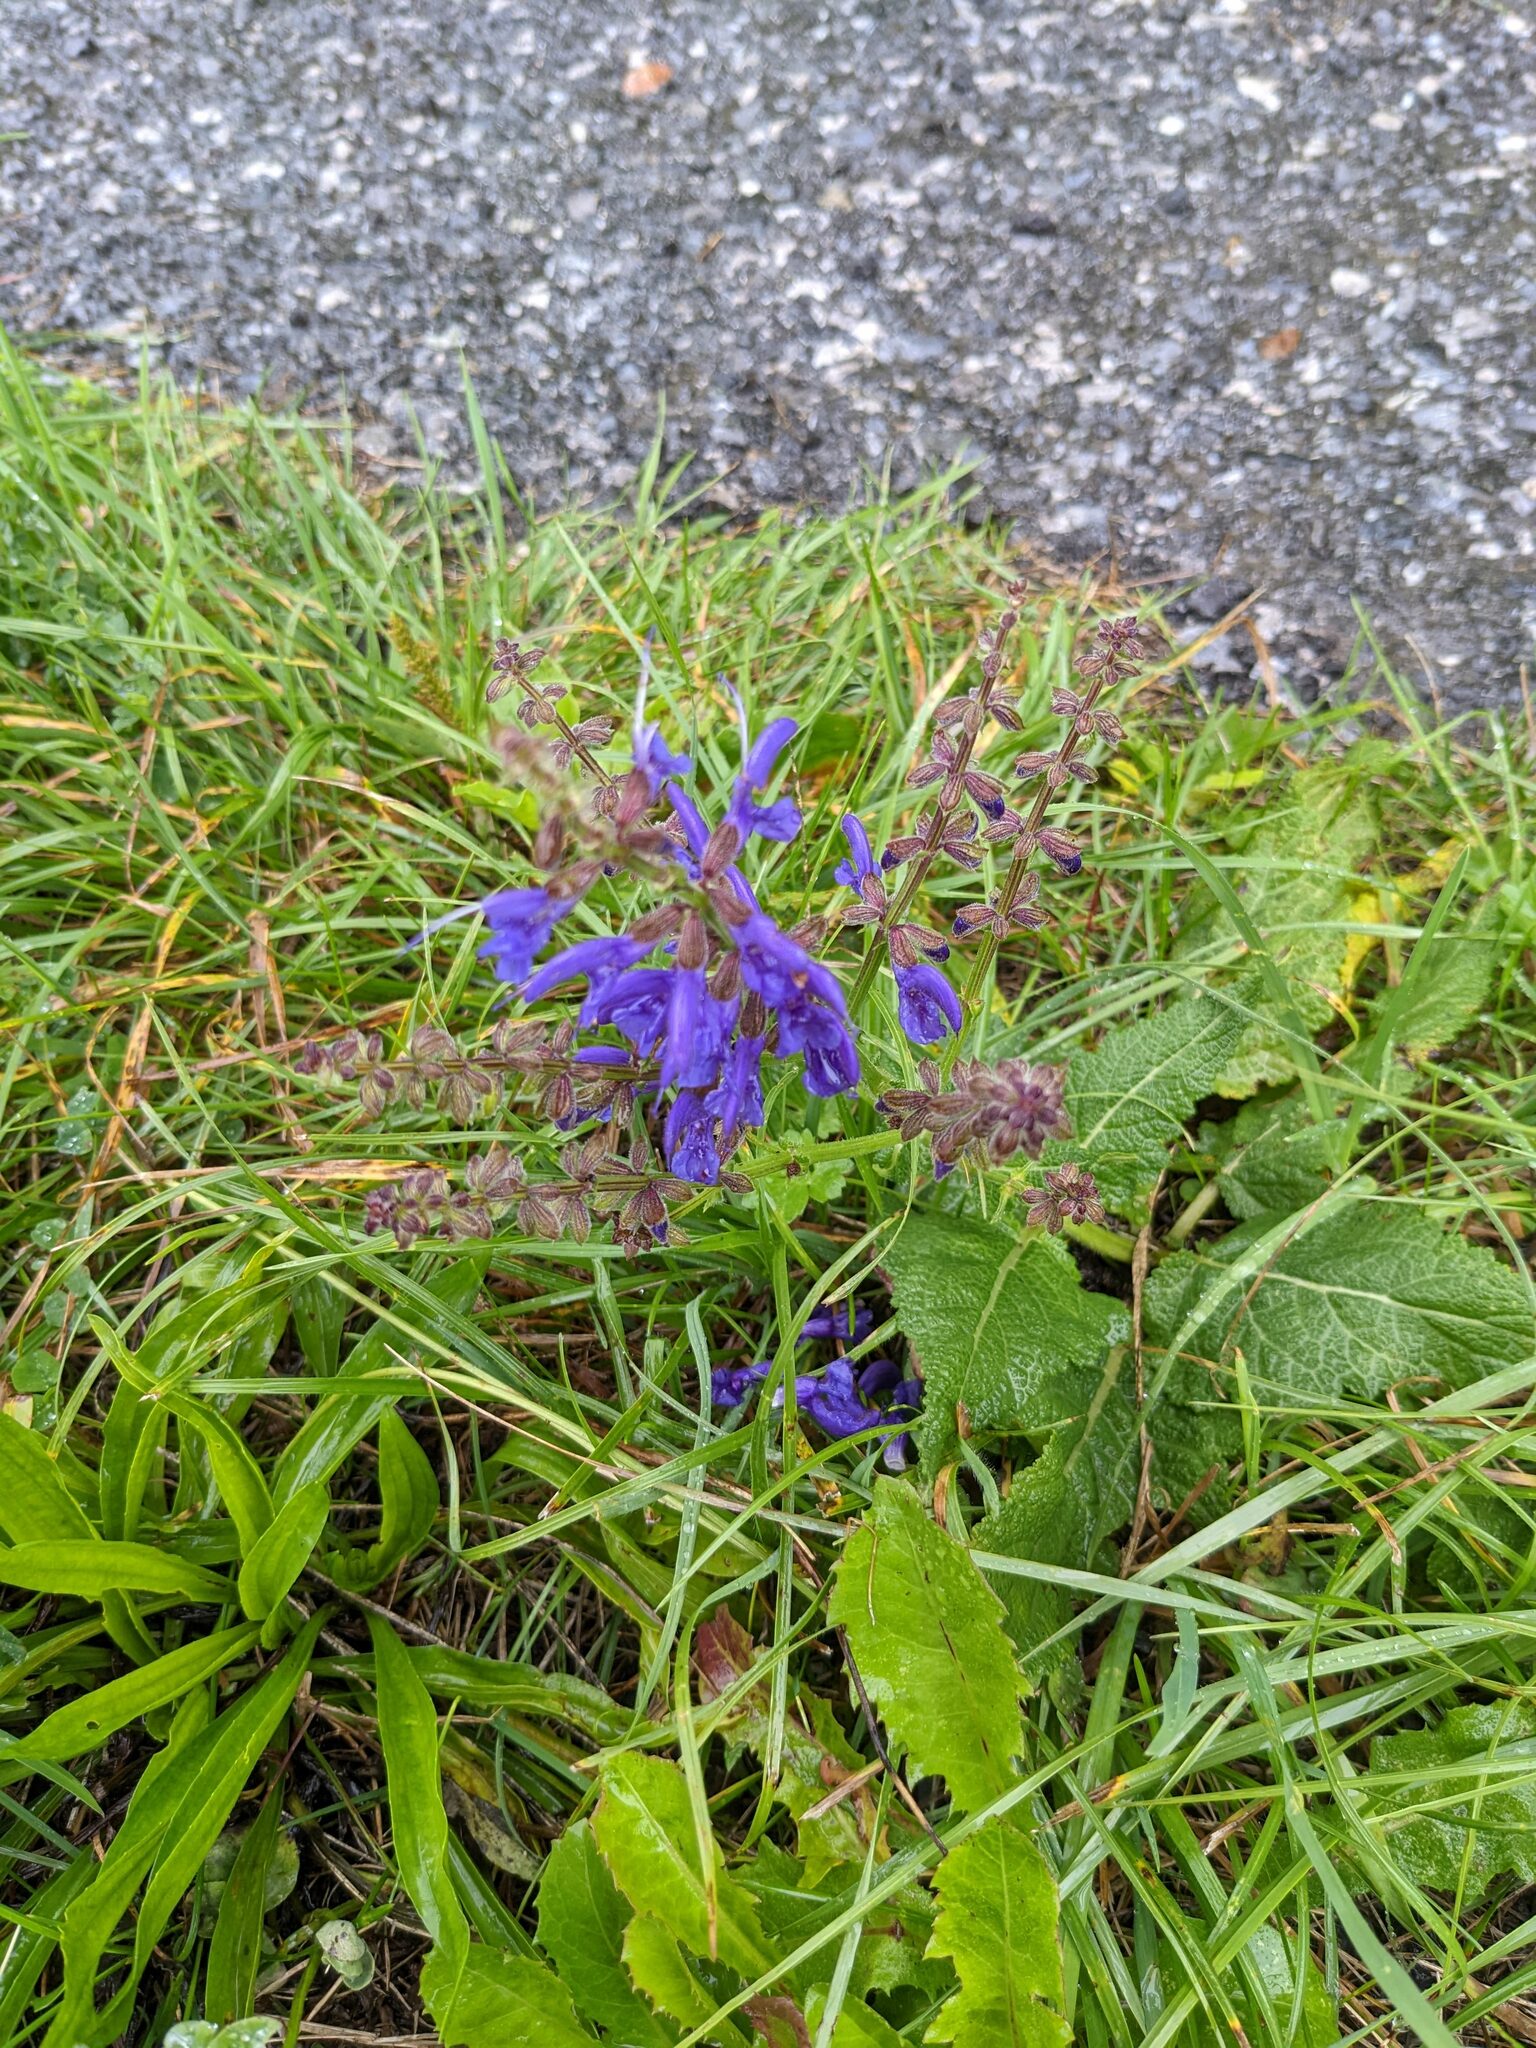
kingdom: Plantae
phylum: Tracheophyta
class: Magnoliopsida
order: Lamiales
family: Lamiaceae
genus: Salvia
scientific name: Salvia pratensis
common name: Meadow sage
